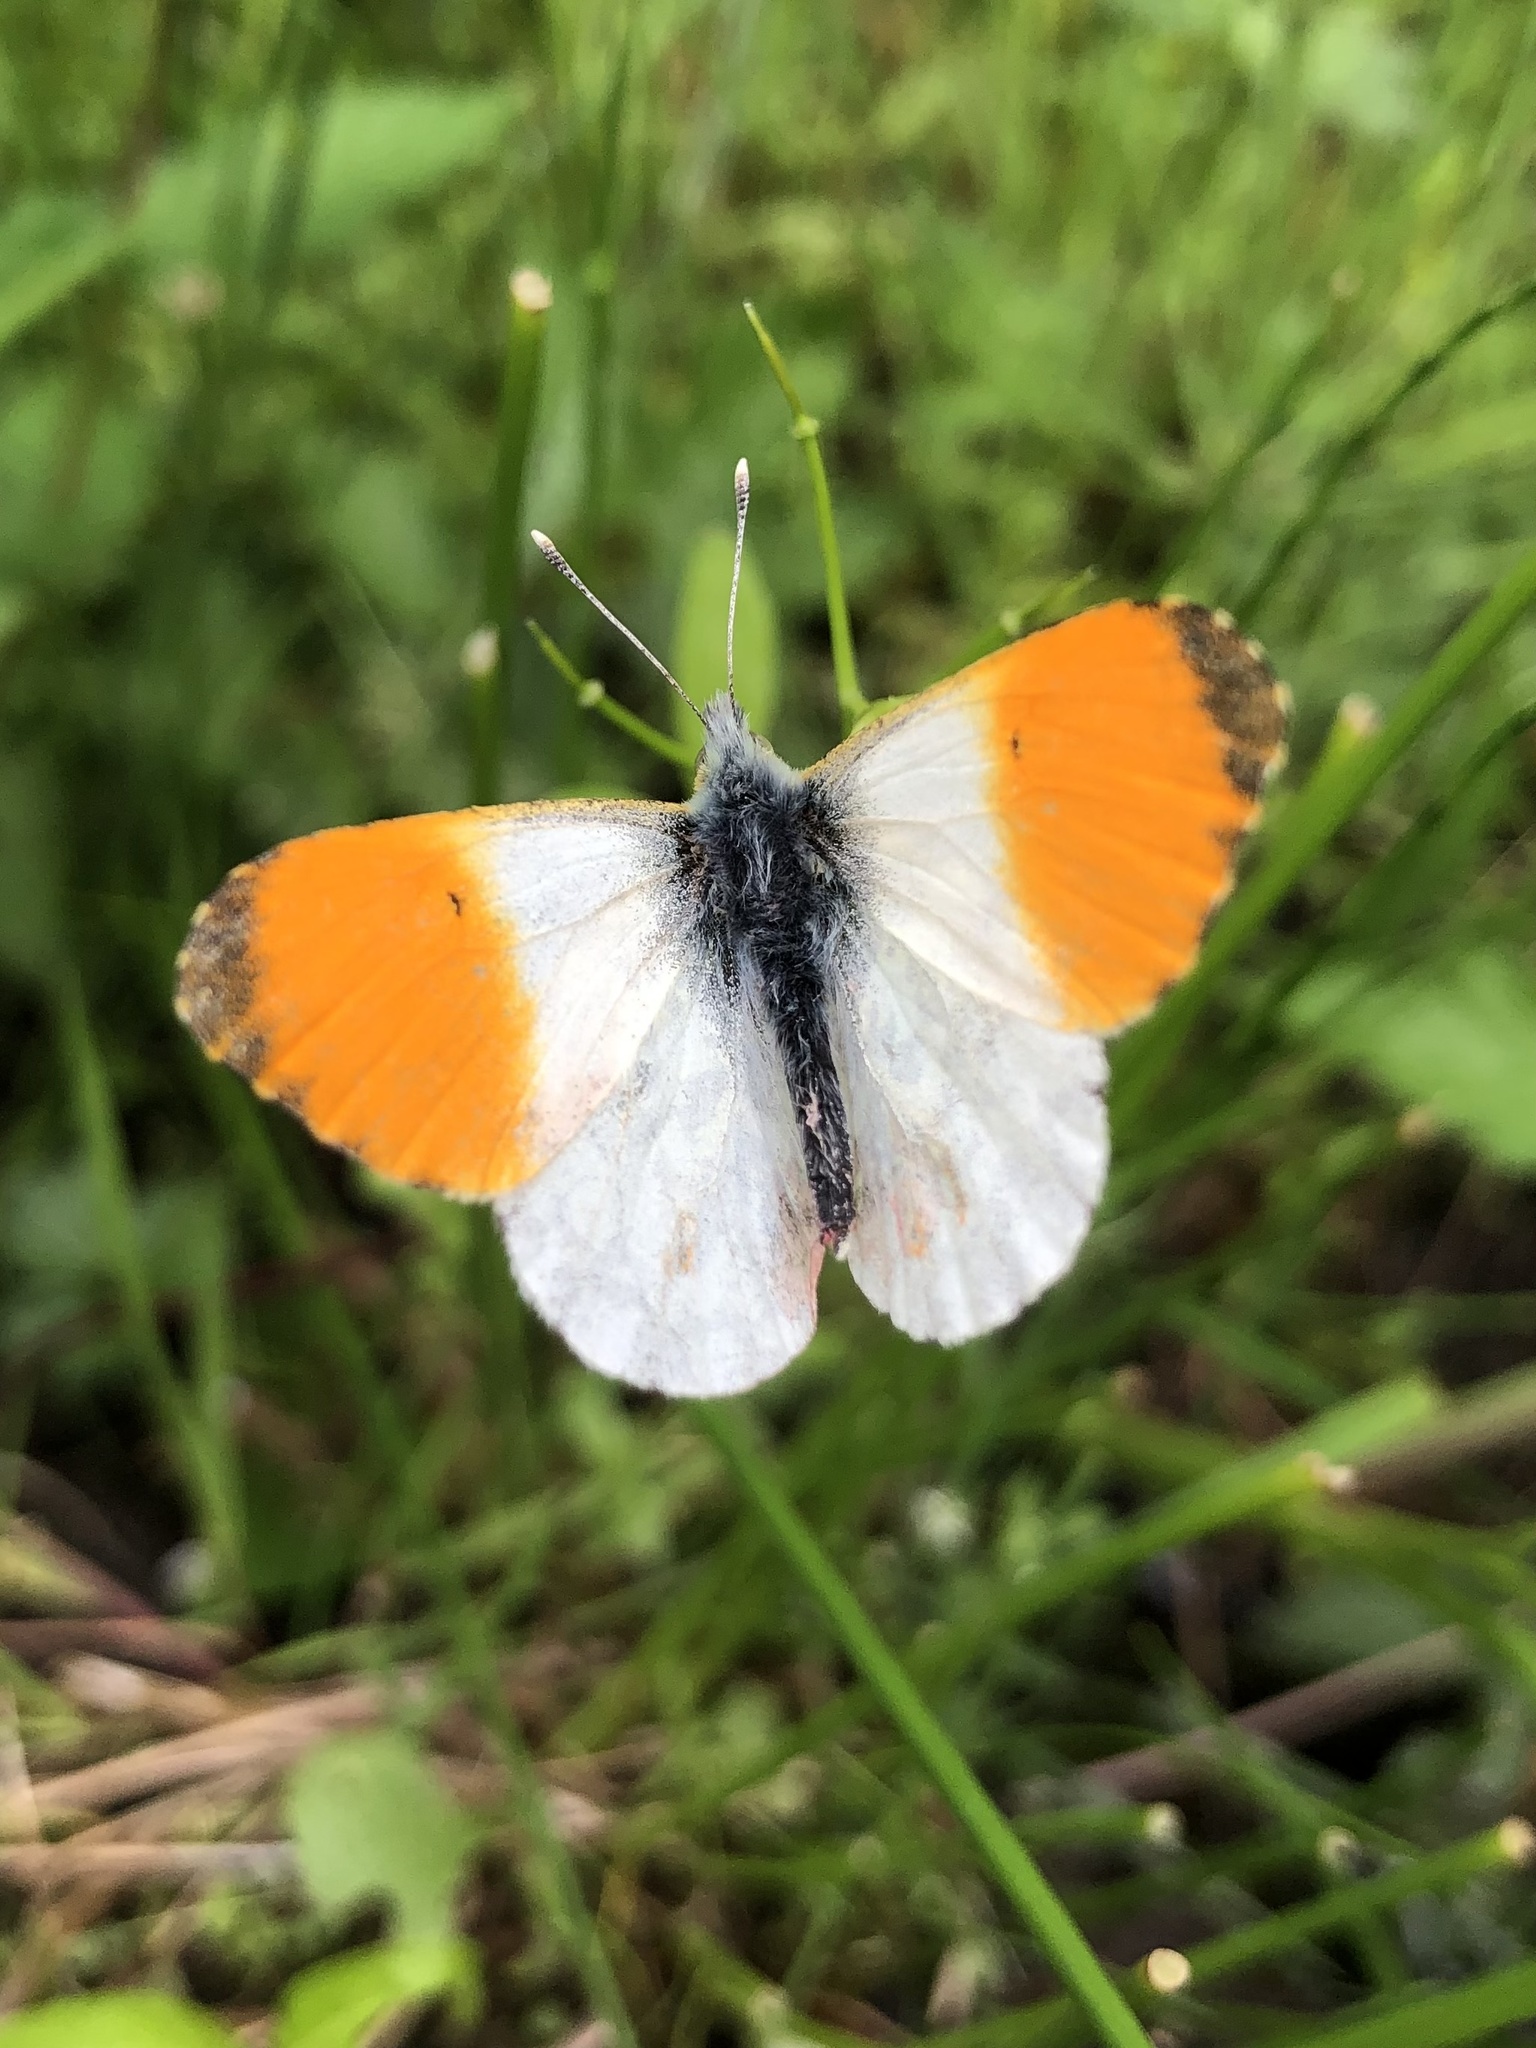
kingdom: Animalia
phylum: Arthropoda
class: Insecta
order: Lepidoptera
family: Pieridae
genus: Anthocharis
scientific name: Anthocharis cardamines
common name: Orange-tip
